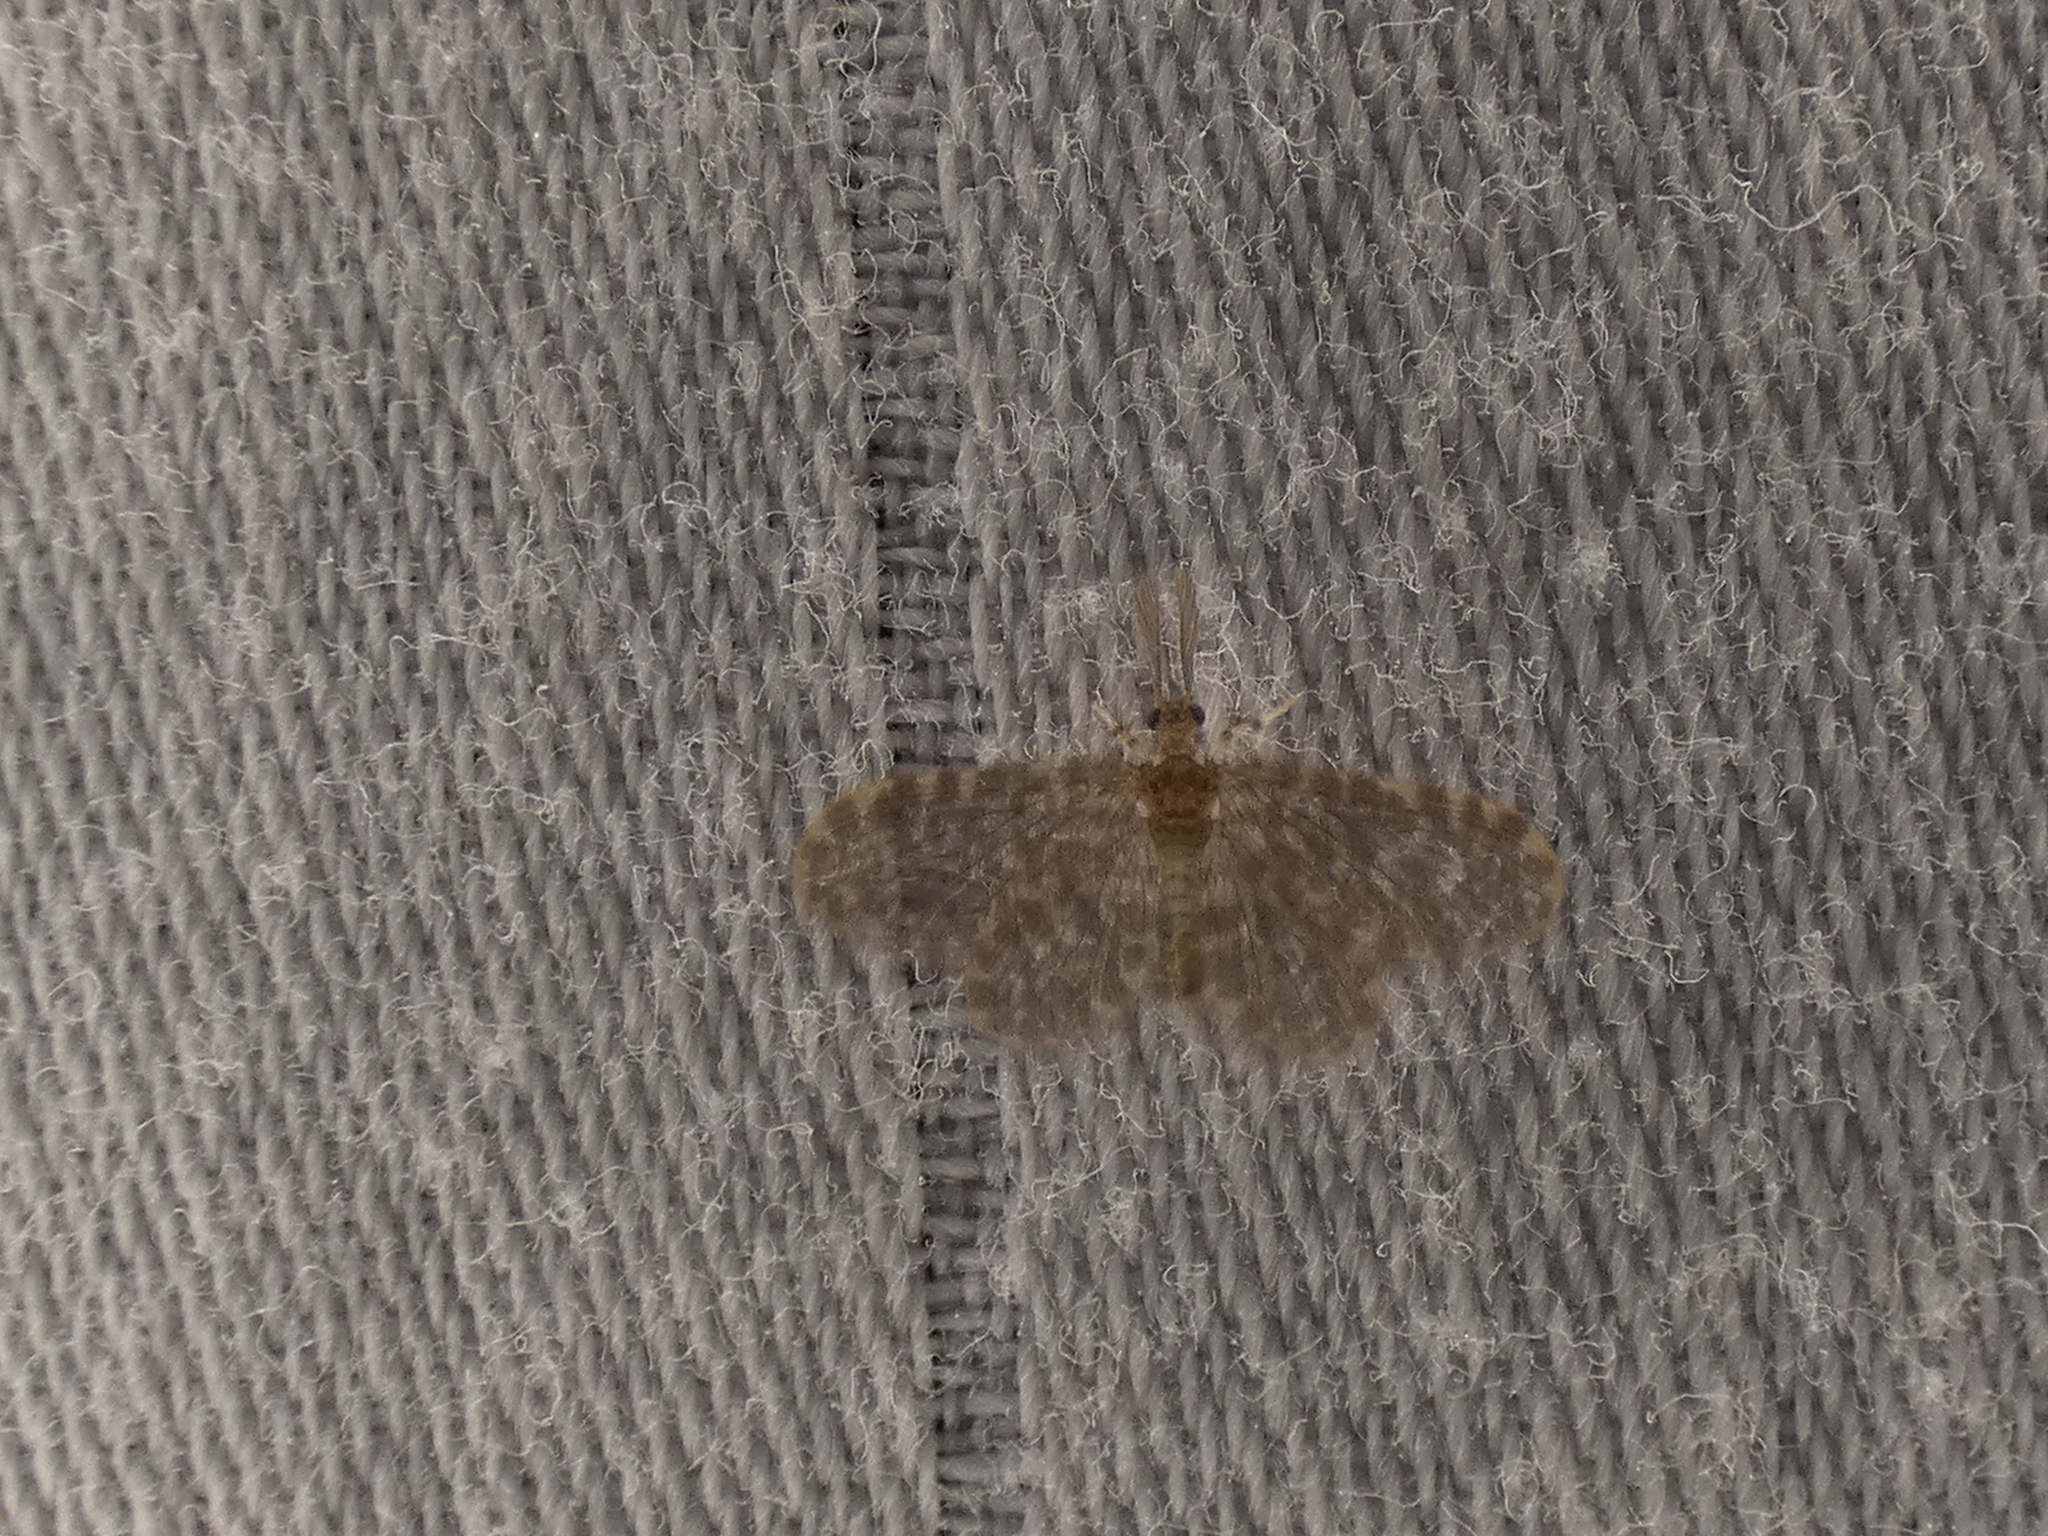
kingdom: Animalia
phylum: Arthropoda
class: Insecta
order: Neuroptera
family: Dilaridae
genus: Nallachius
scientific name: Nallachius americanus
